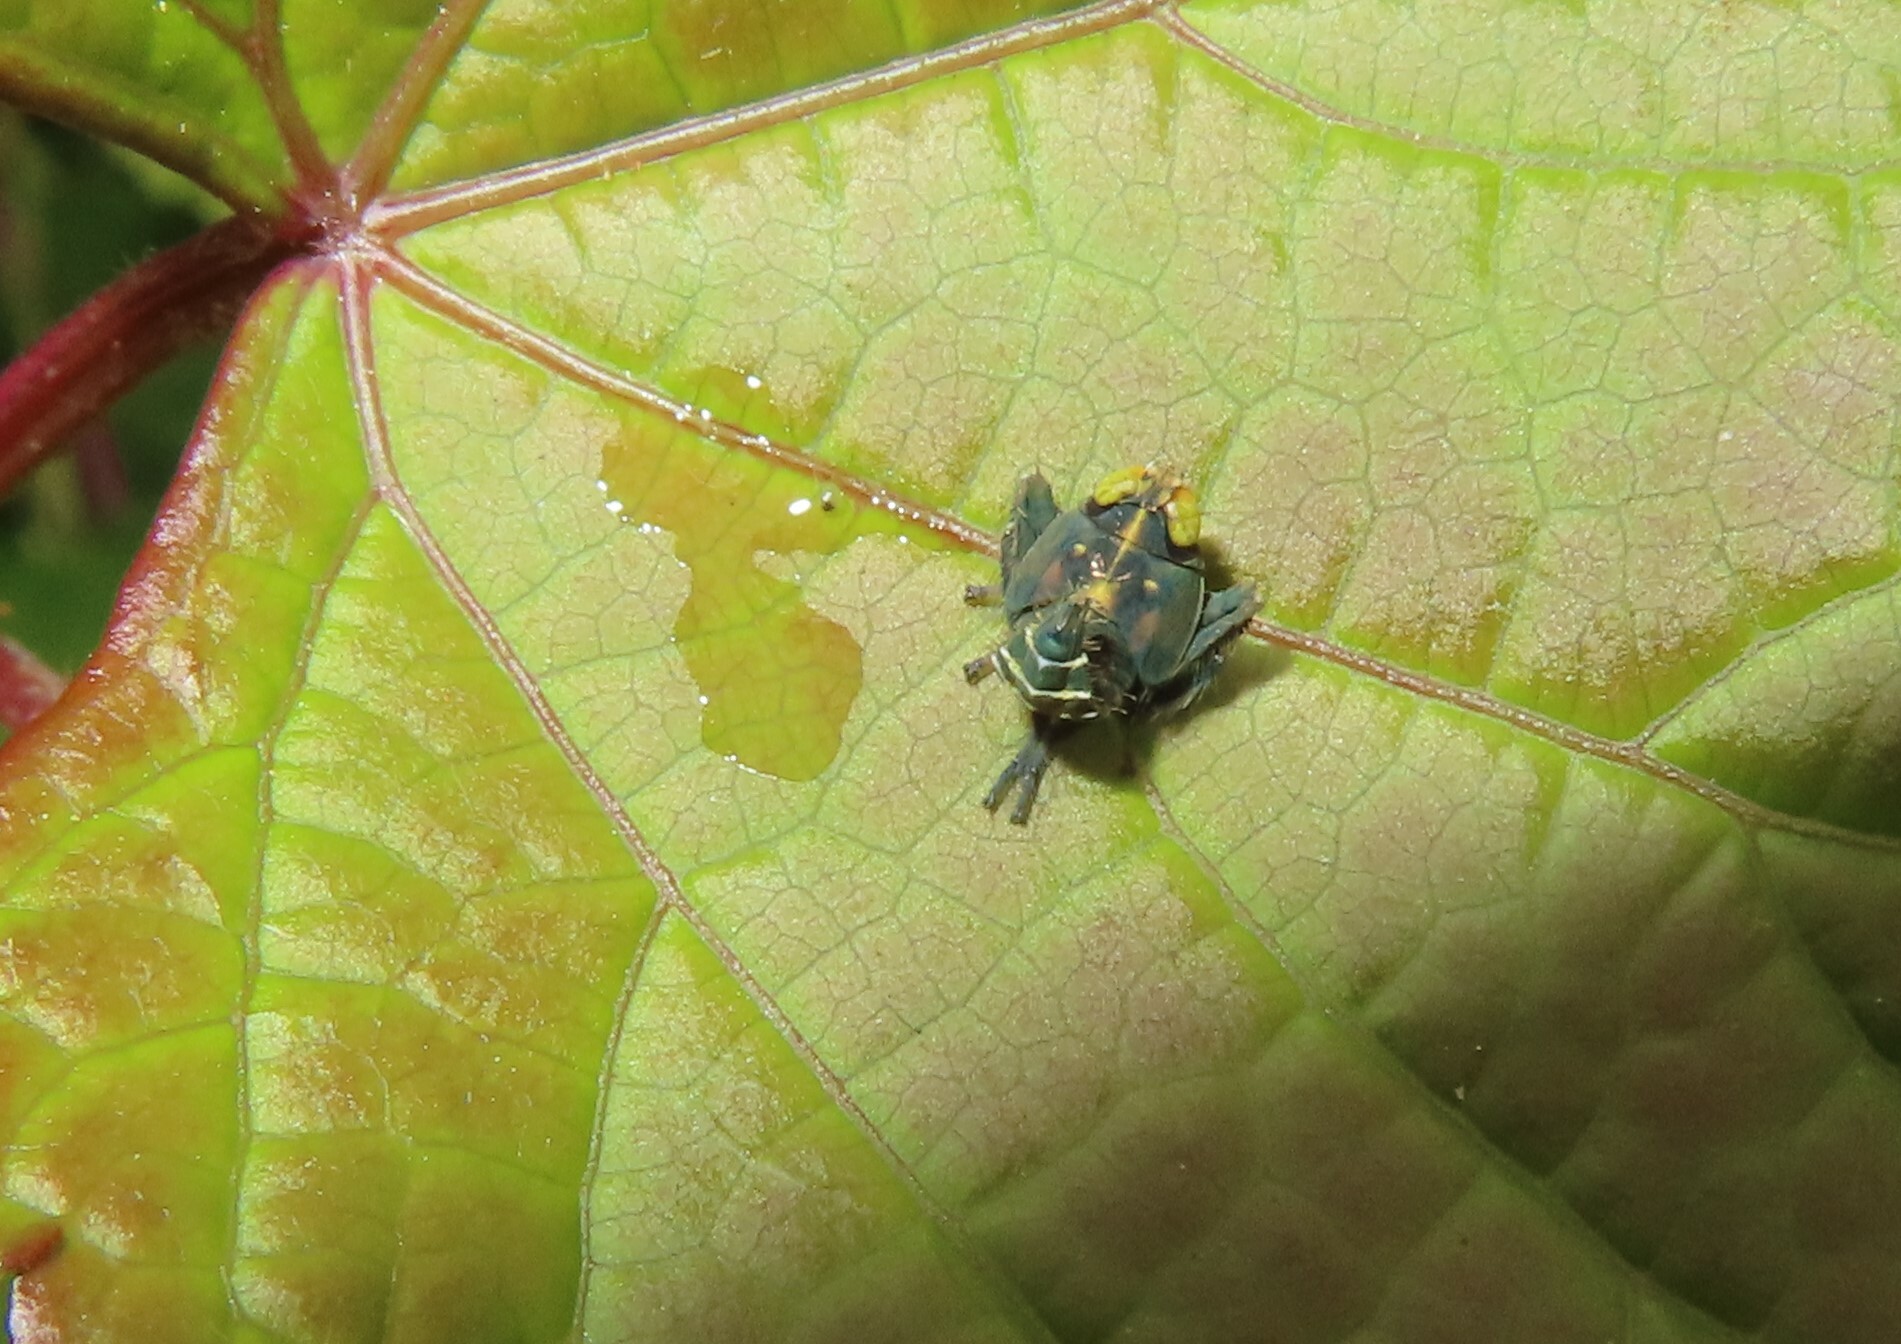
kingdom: Animalia
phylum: Arthropoda
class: Insecta
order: Hemiptera
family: Cicadellidae
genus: Jikradia
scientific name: Jikradia olitoria
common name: Coppery leafhopper
